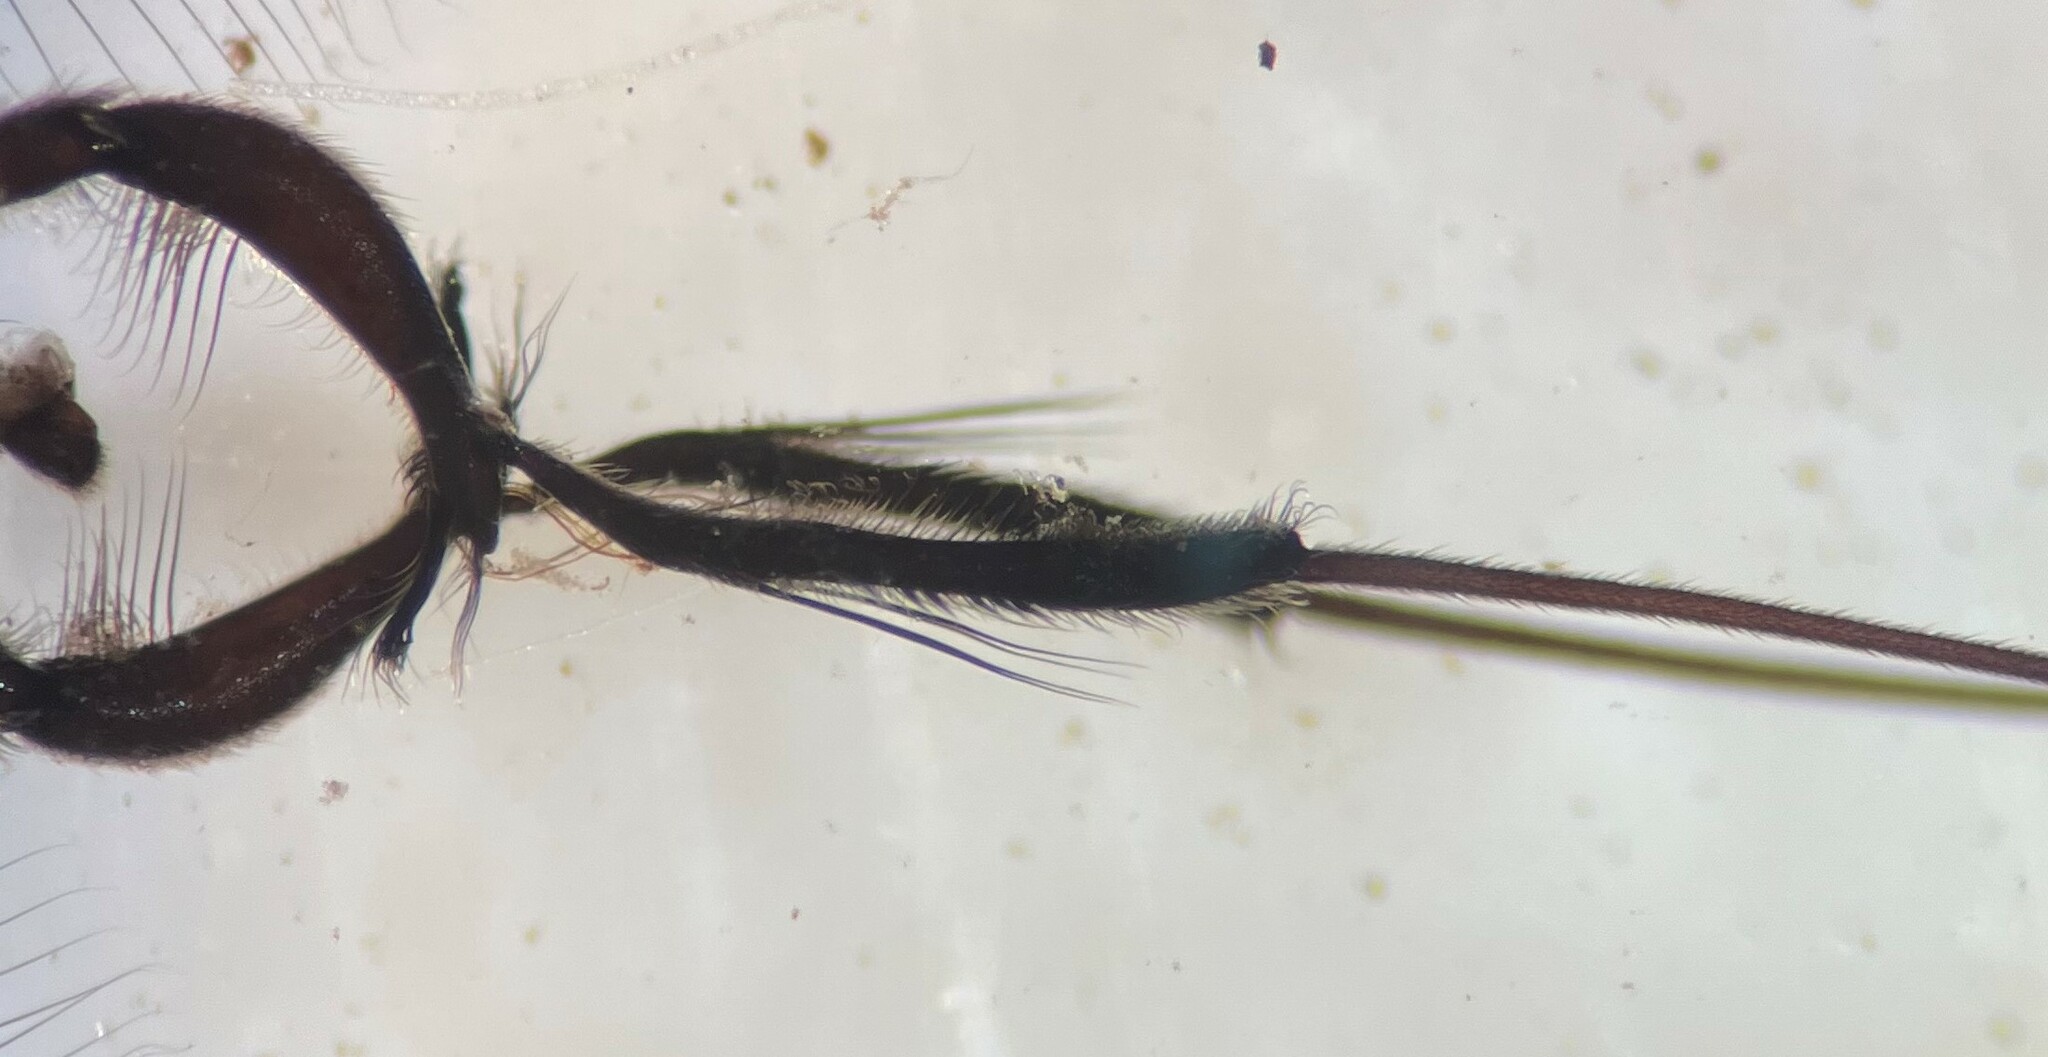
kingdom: Animalia
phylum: Arthropoda
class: Insecta
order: Hemiptera
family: Gerridae
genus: Rheumatobates
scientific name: Rheumatobates rileyi
